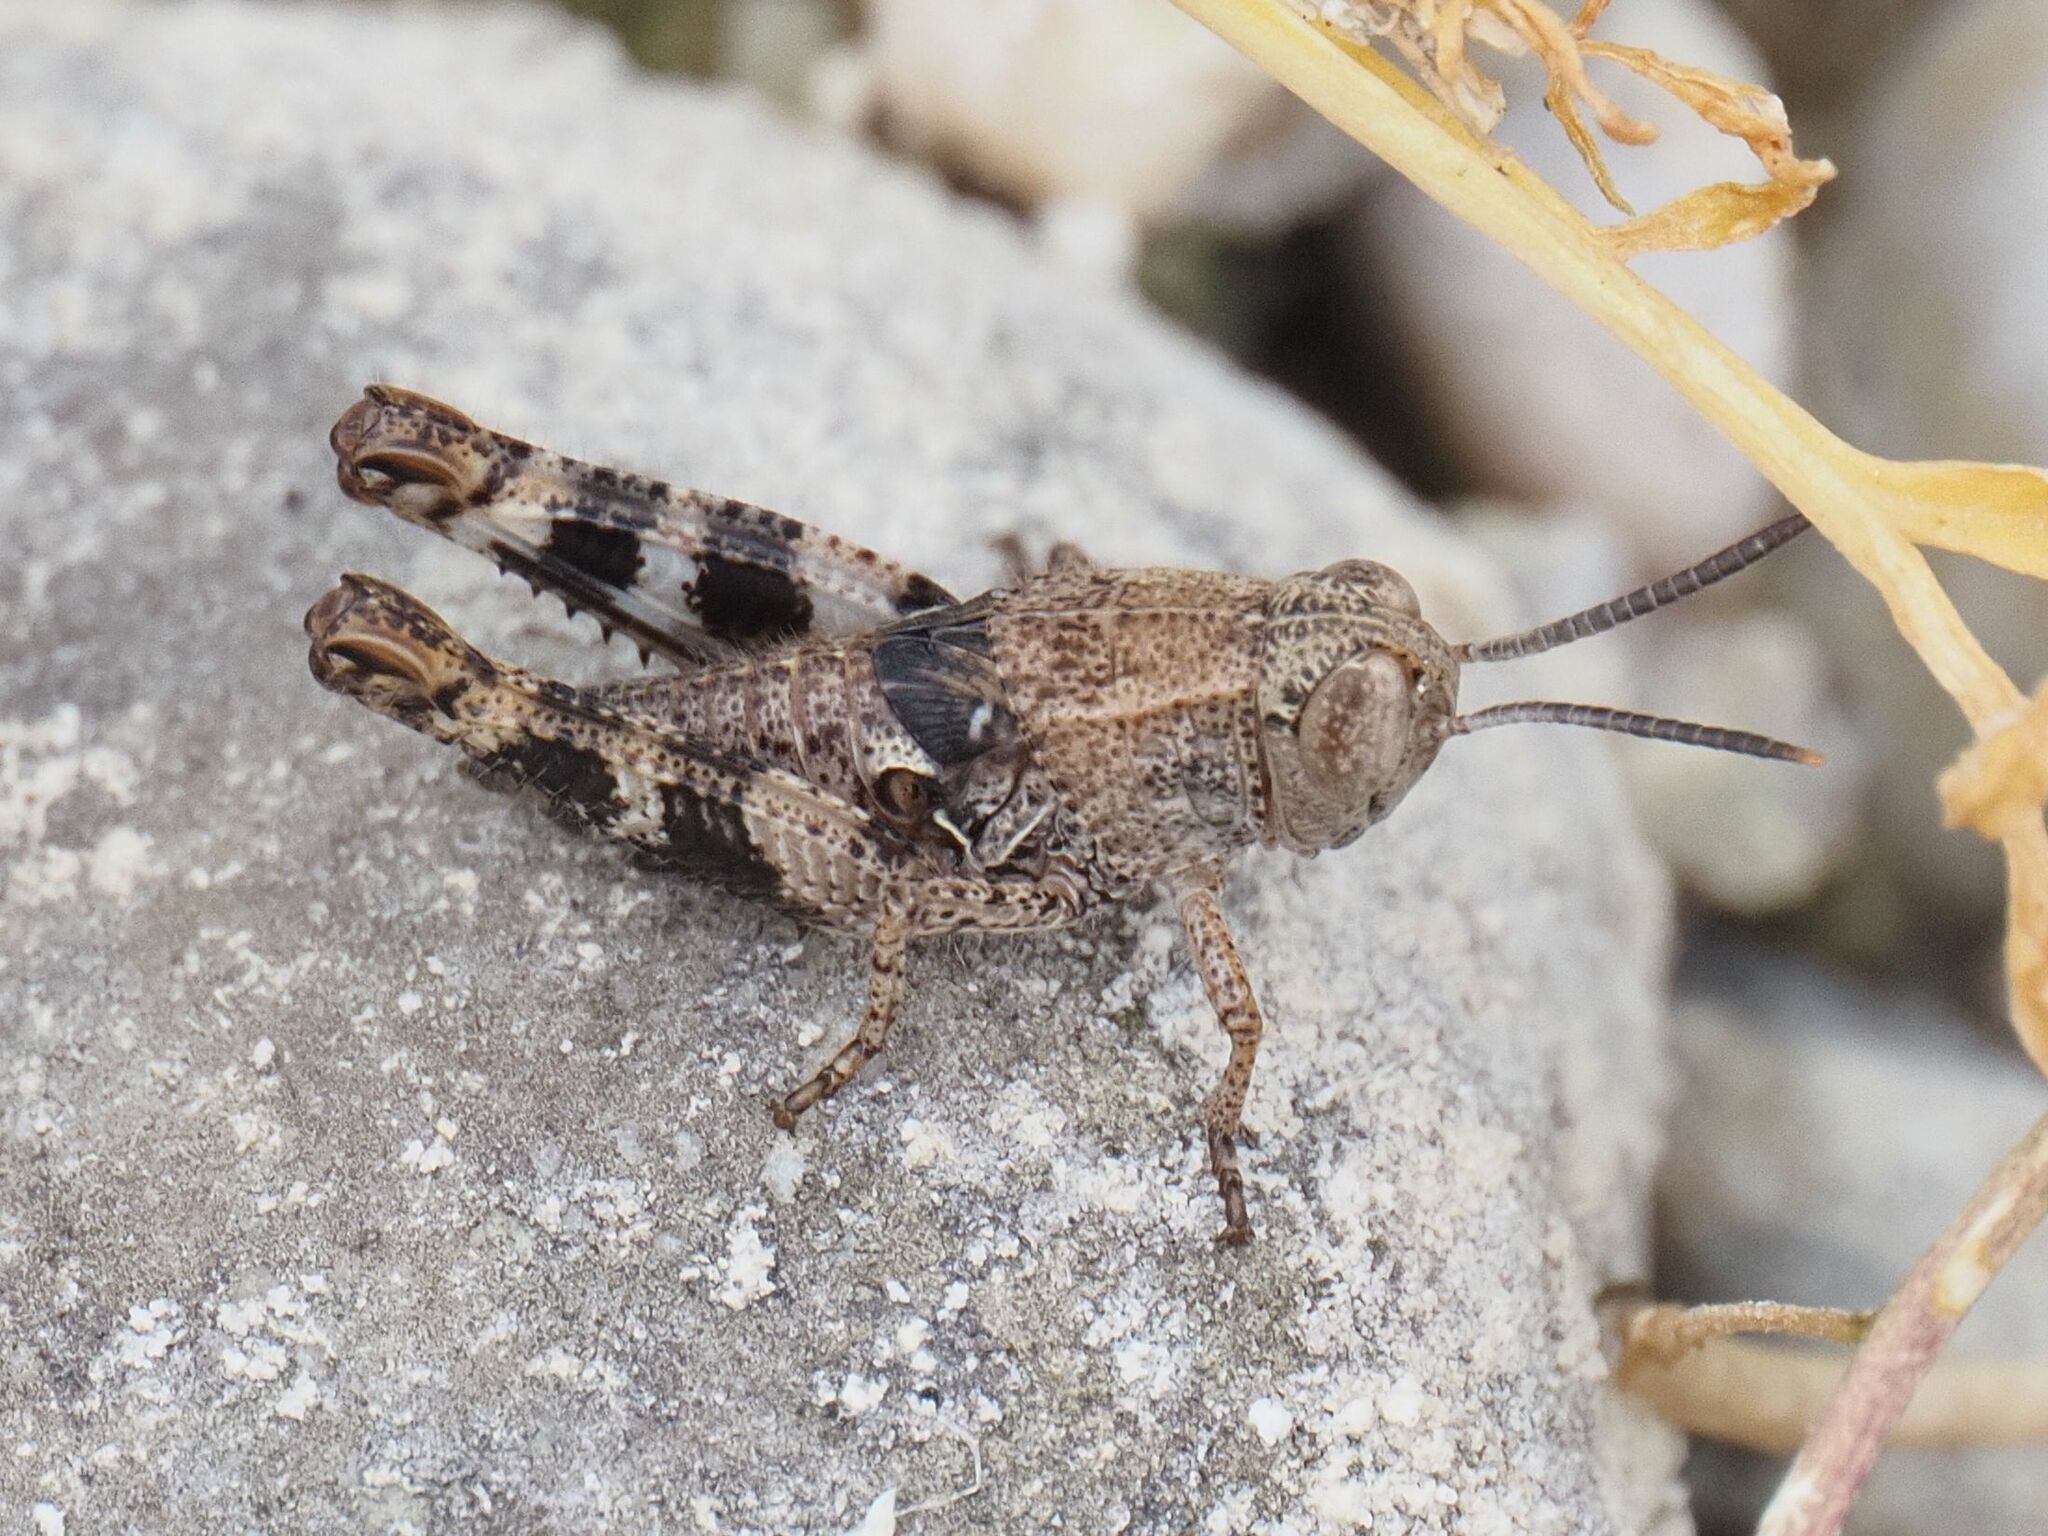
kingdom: Animalia
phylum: Arthropoda
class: Insecta
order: Orthoptera
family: Acrididae
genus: Calliptamus
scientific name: Calliptamus italicus
